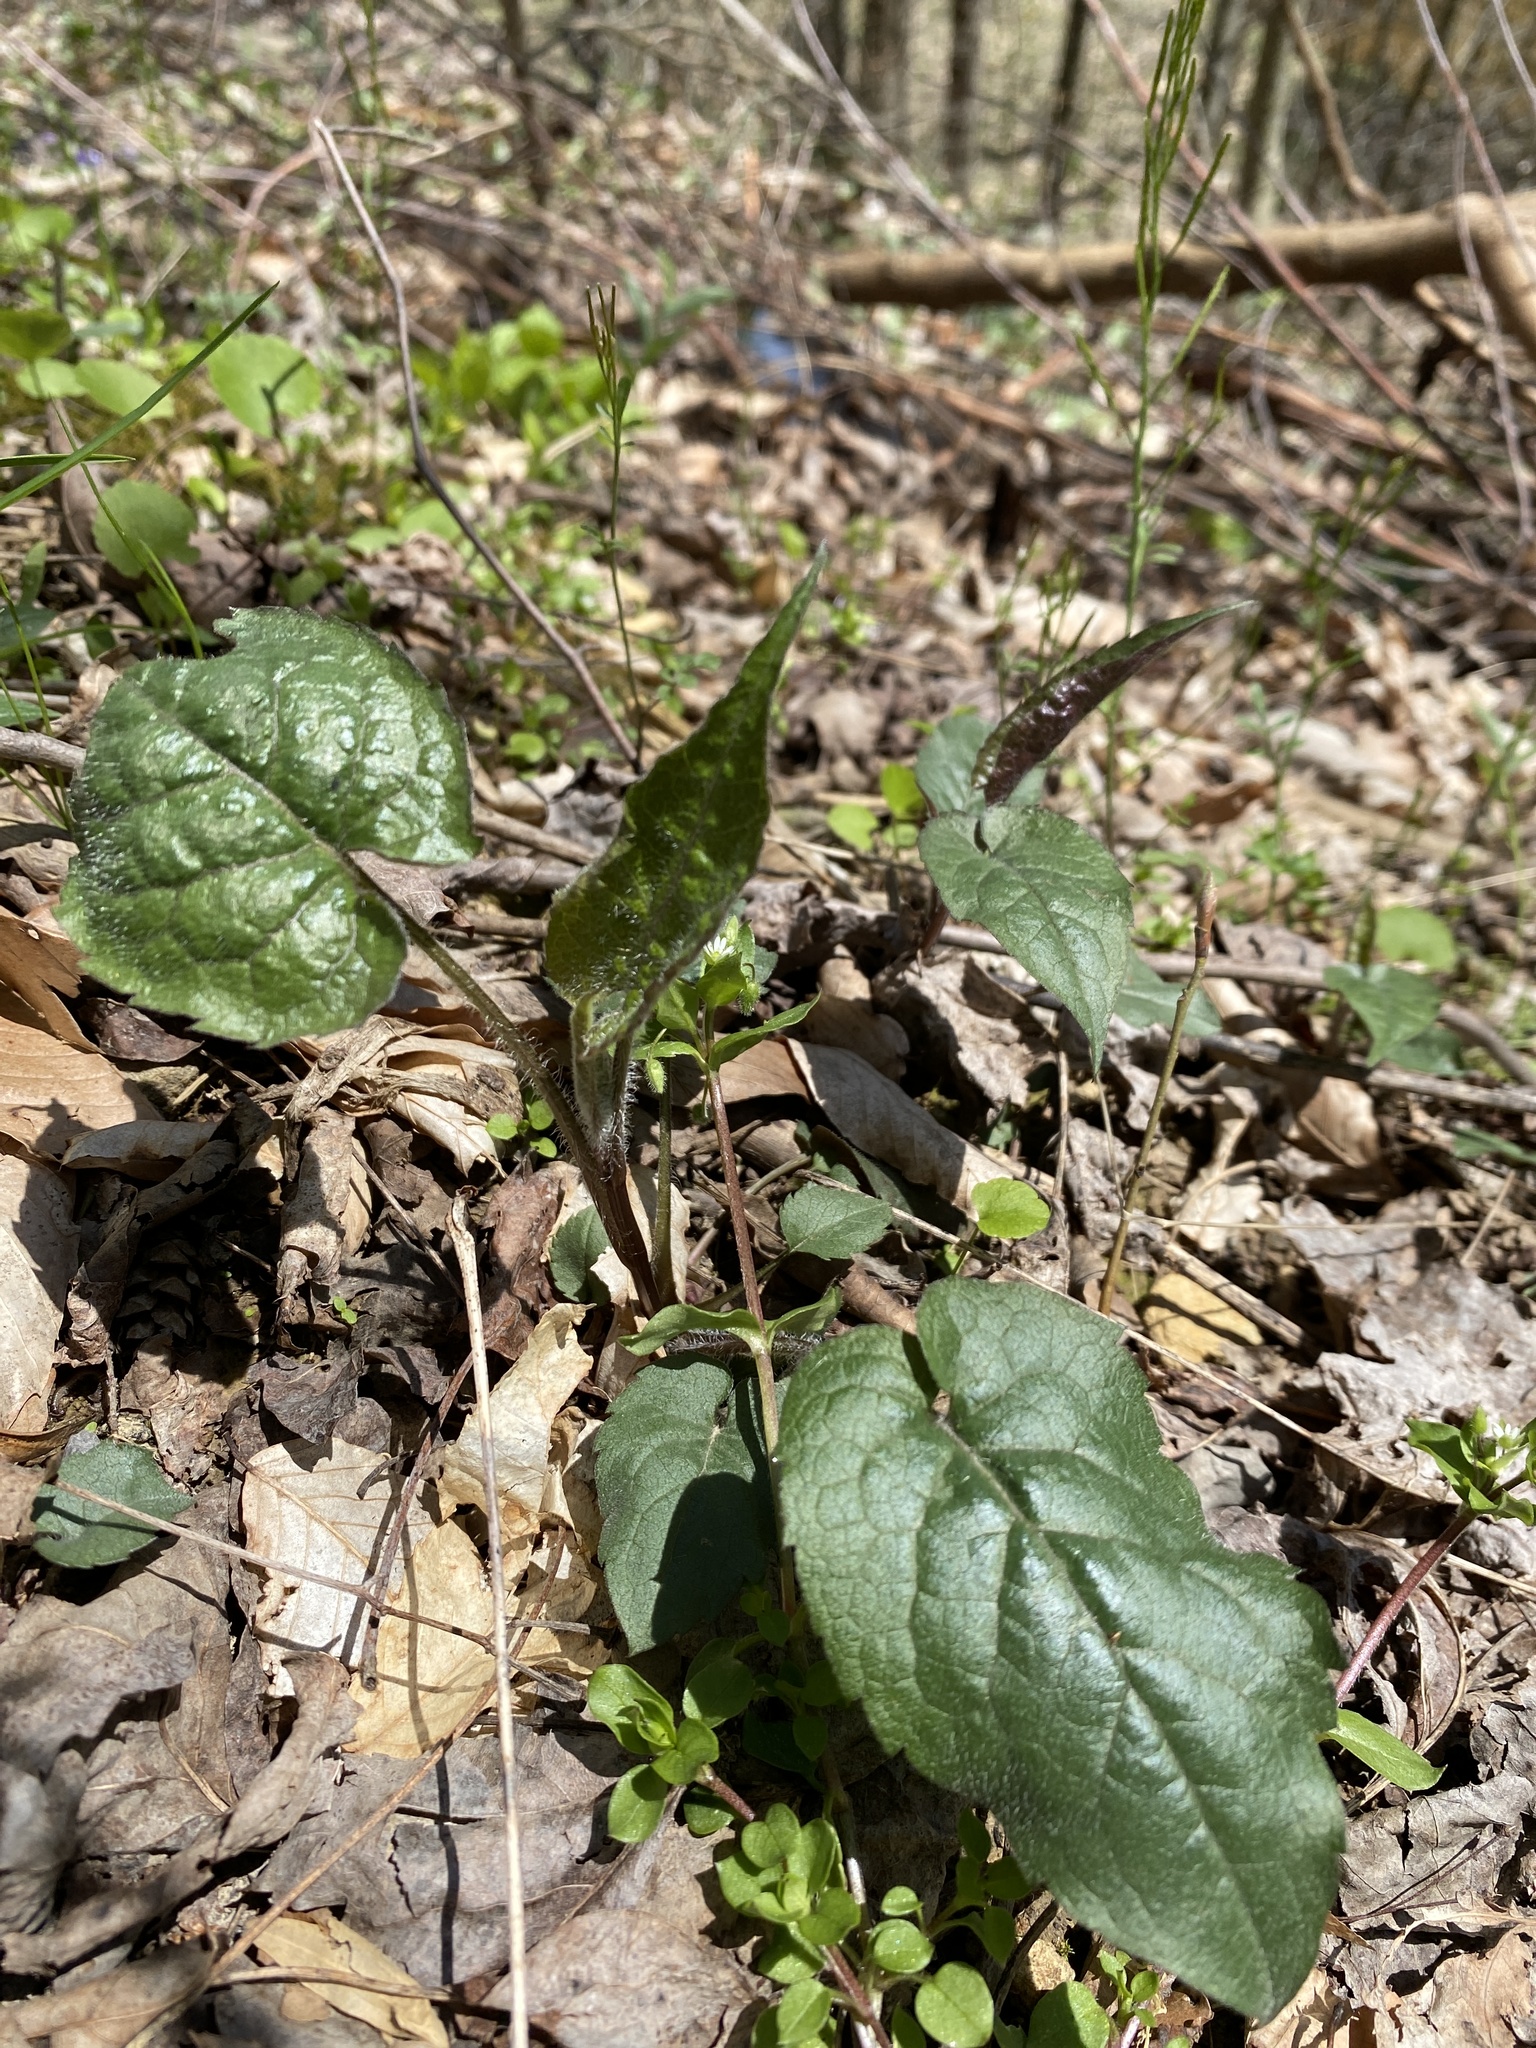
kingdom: Plantae
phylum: Tracheophyta
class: Magnoliopsida
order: Asterales
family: Asteraceae
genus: Eurybia
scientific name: Eurybia divaricata
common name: White wood aster
